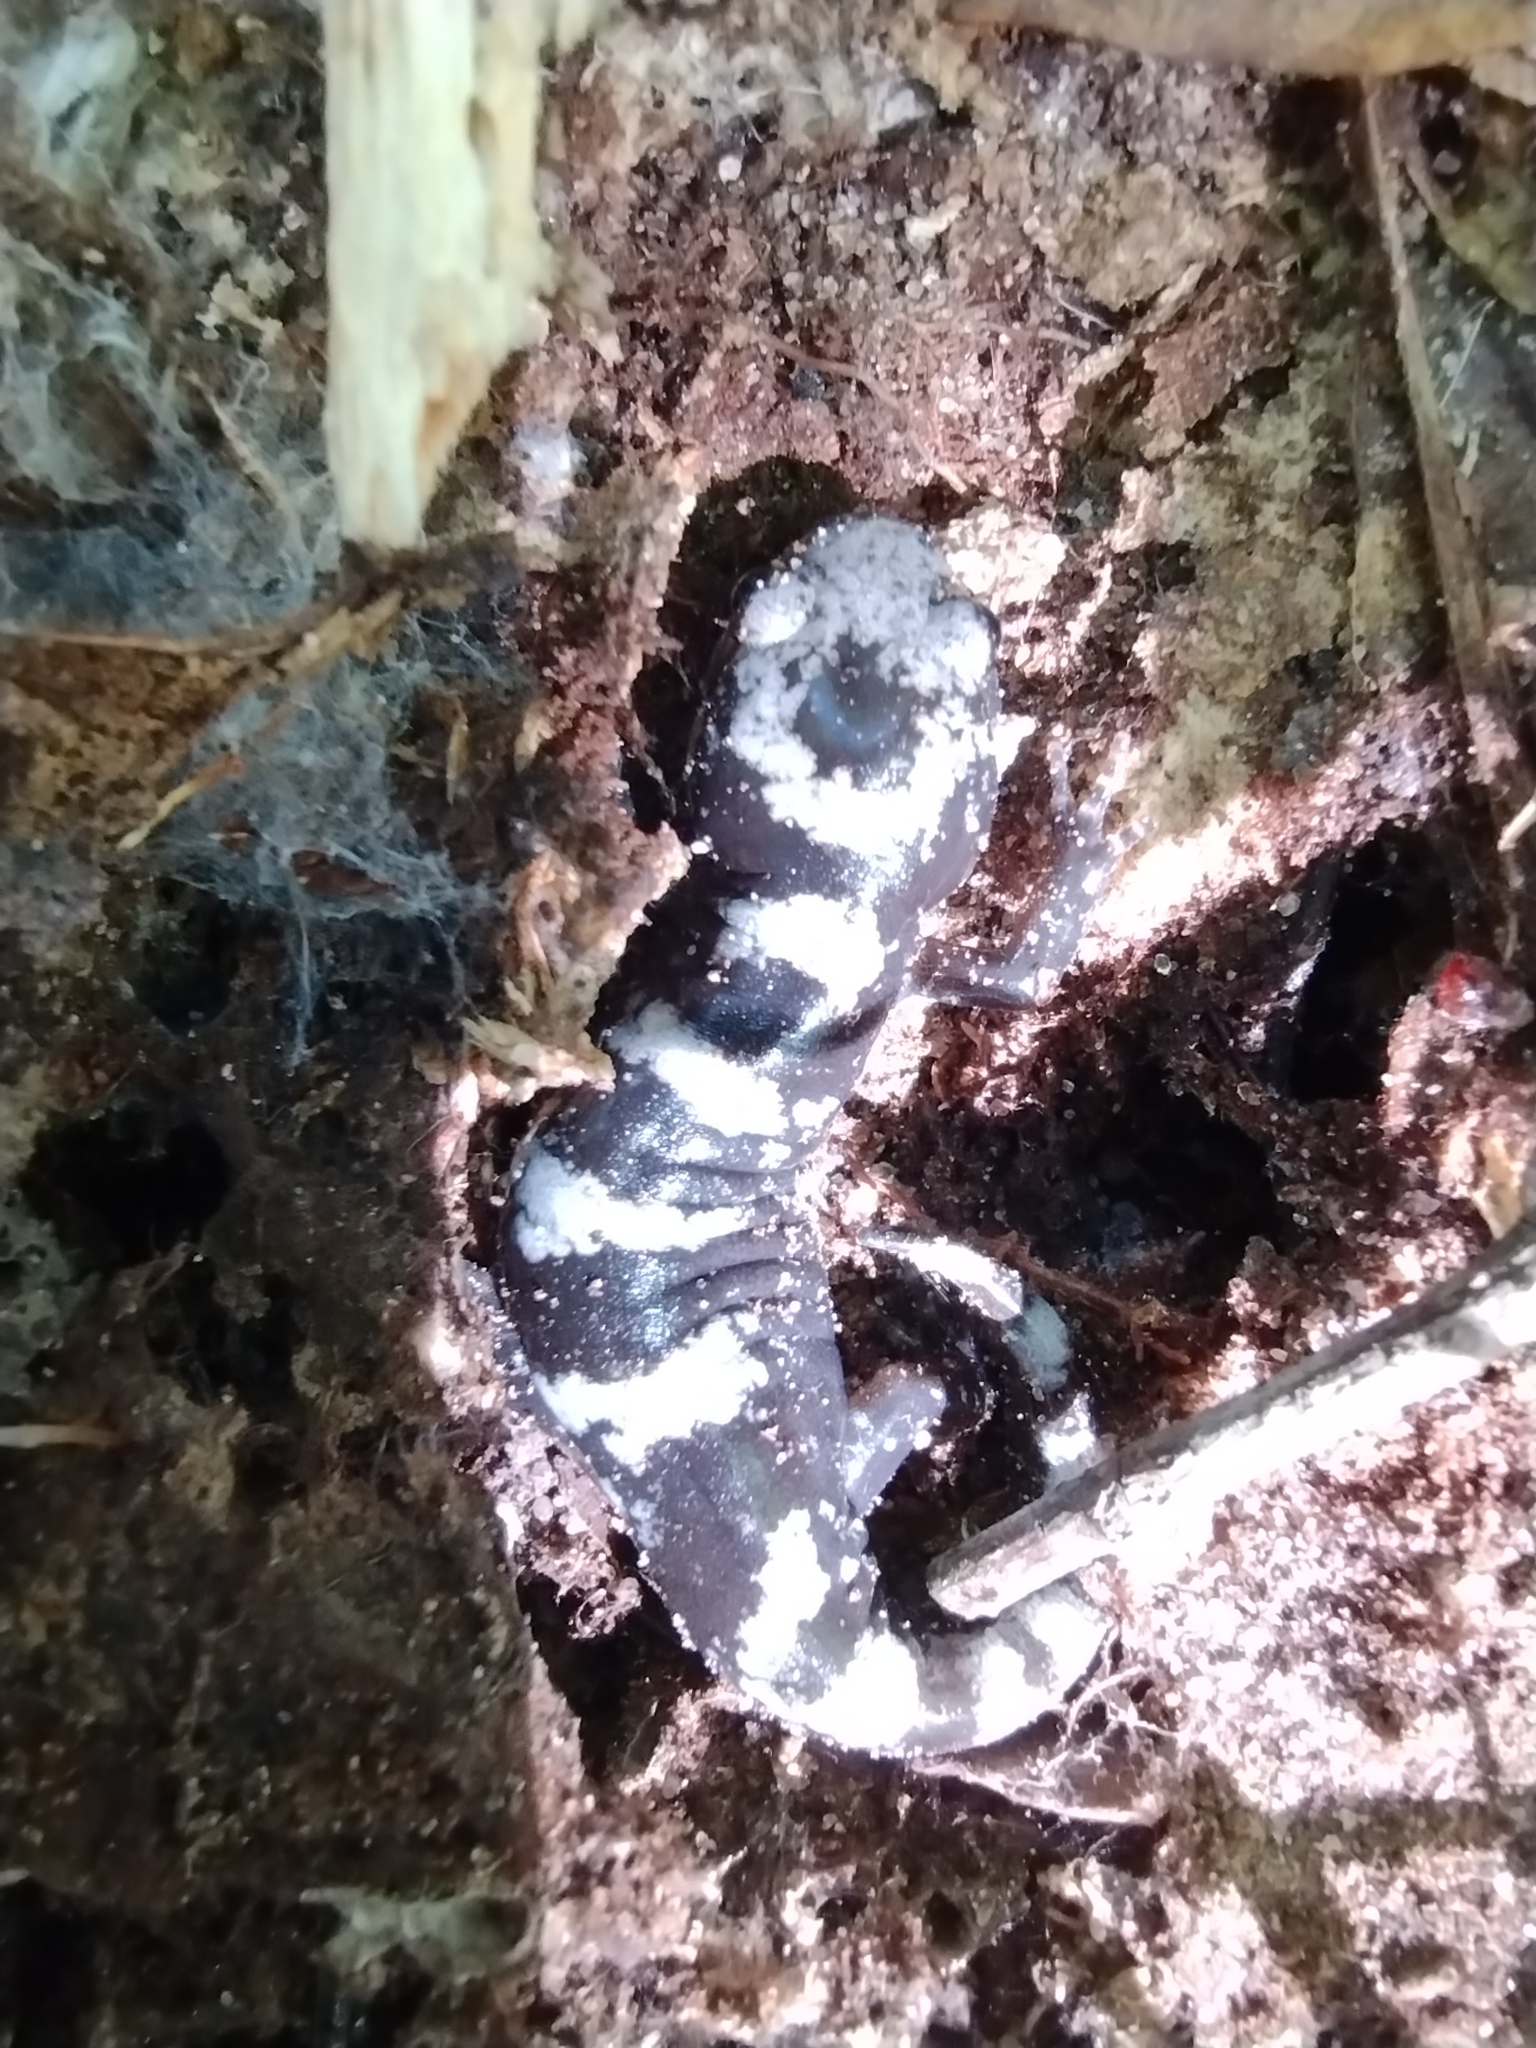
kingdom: Animalia
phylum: Chordata
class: Amphibia
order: Caudata
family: Ambystomatidae
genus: Ambystoma
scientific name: Ambystoma opacum
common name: Marbled salamander
